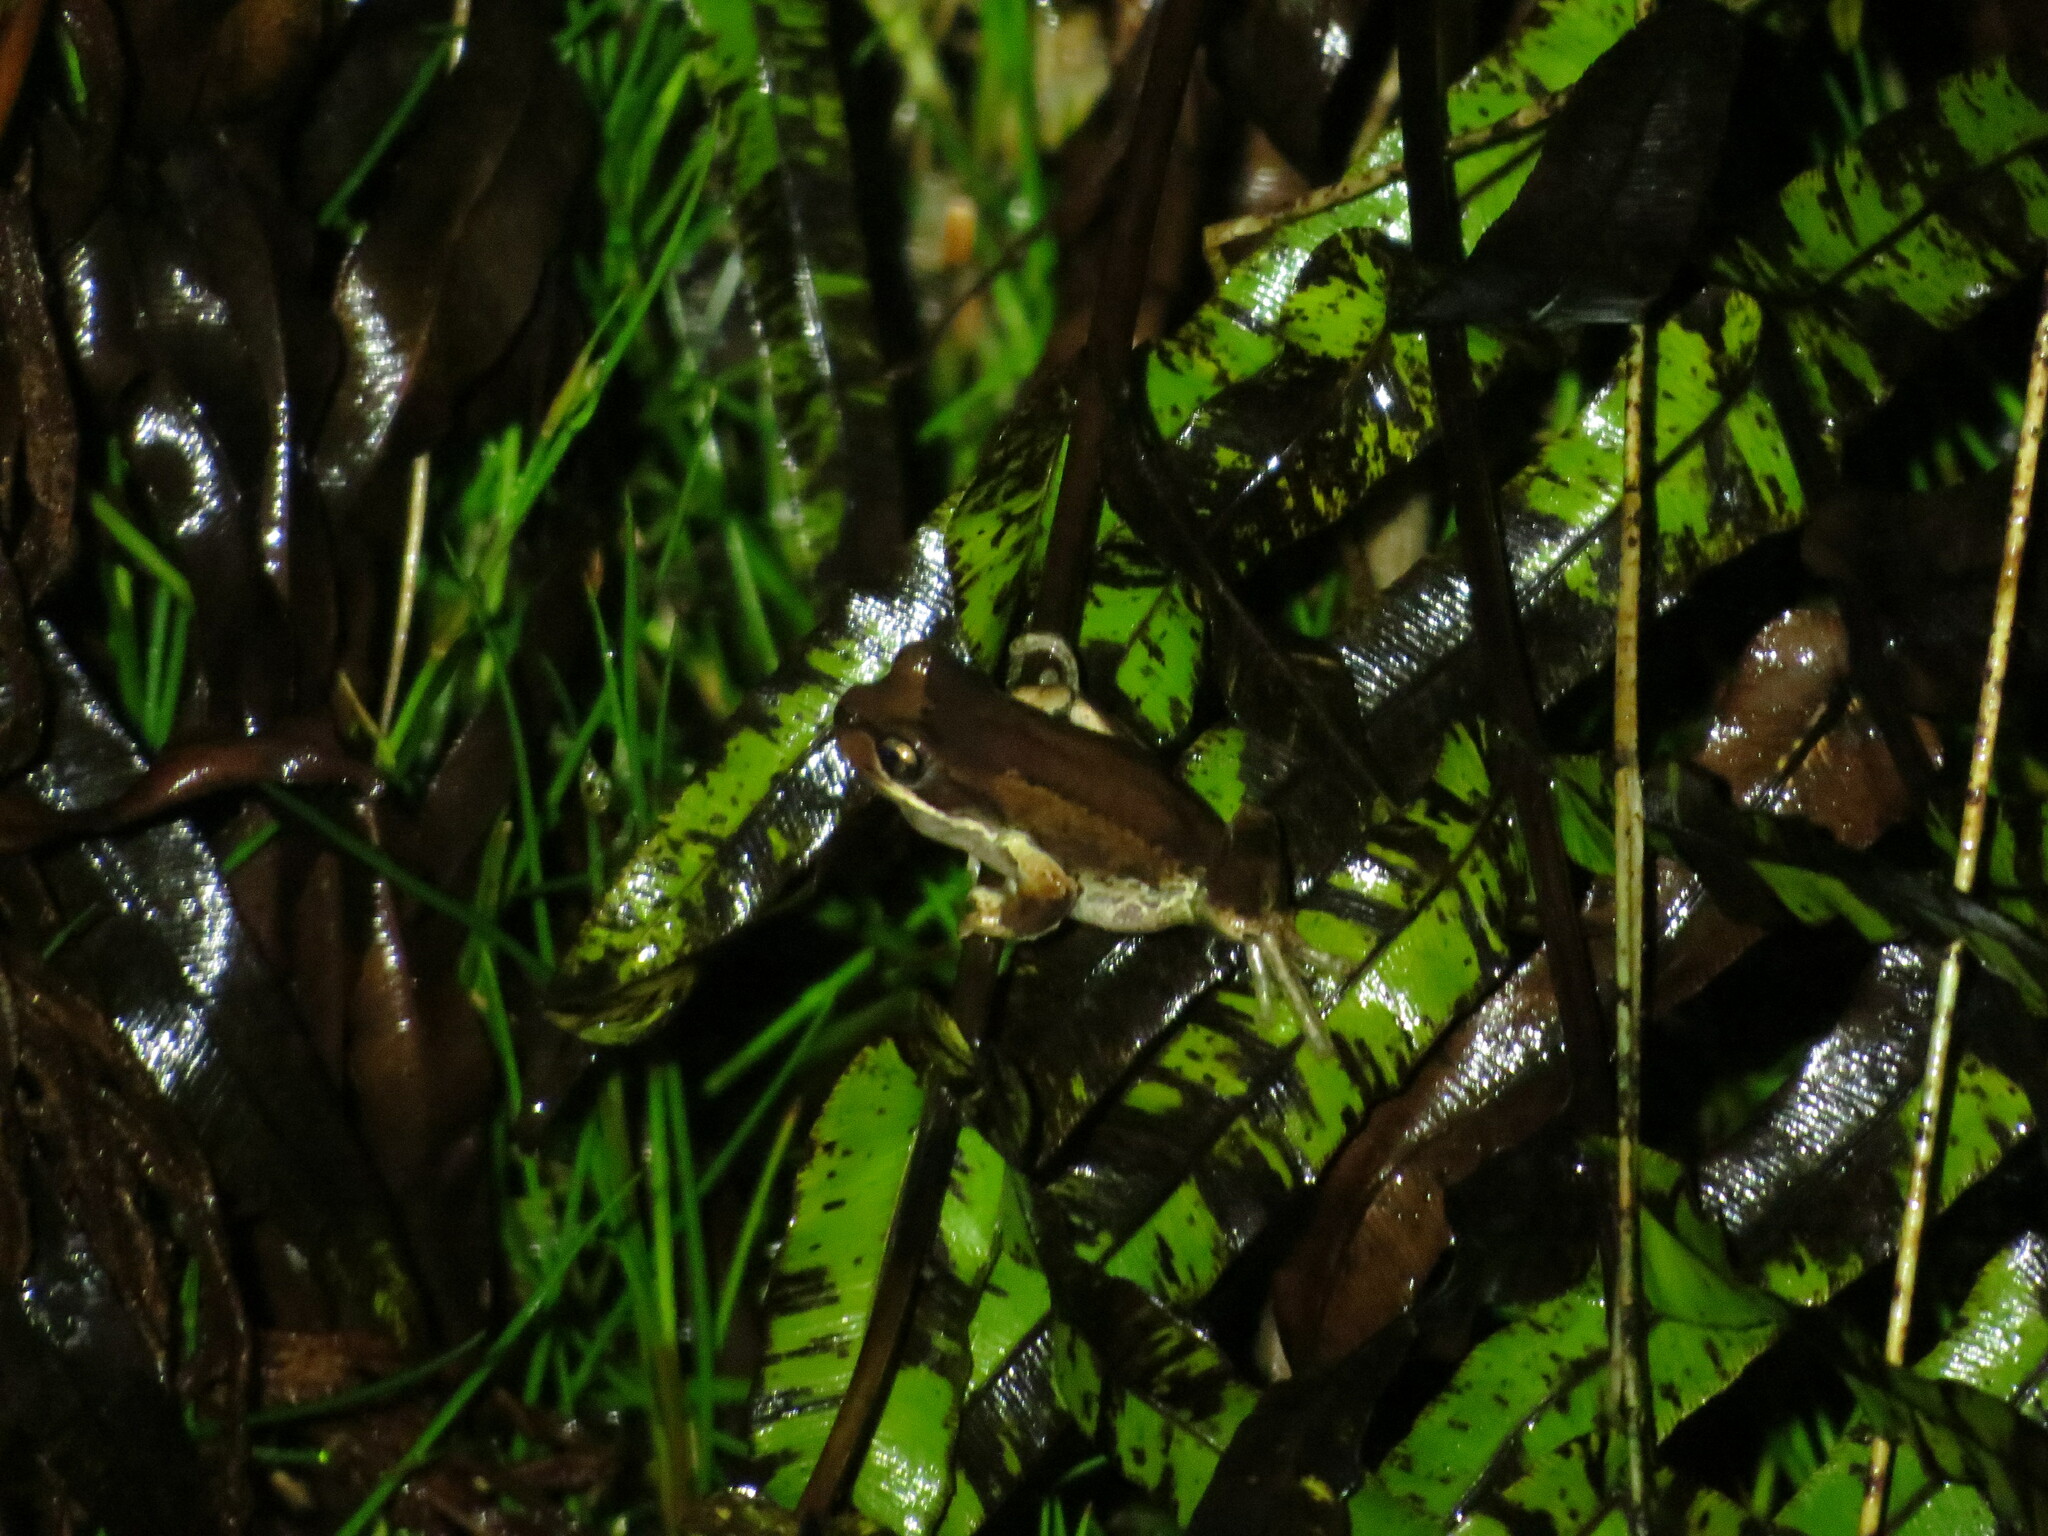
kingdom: Animalia
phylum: Chordata
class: Amphibia
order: Anura
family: Pelodryadidae
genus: Litoria
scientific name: Litoria ewingii
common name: Southern brown tree frog
